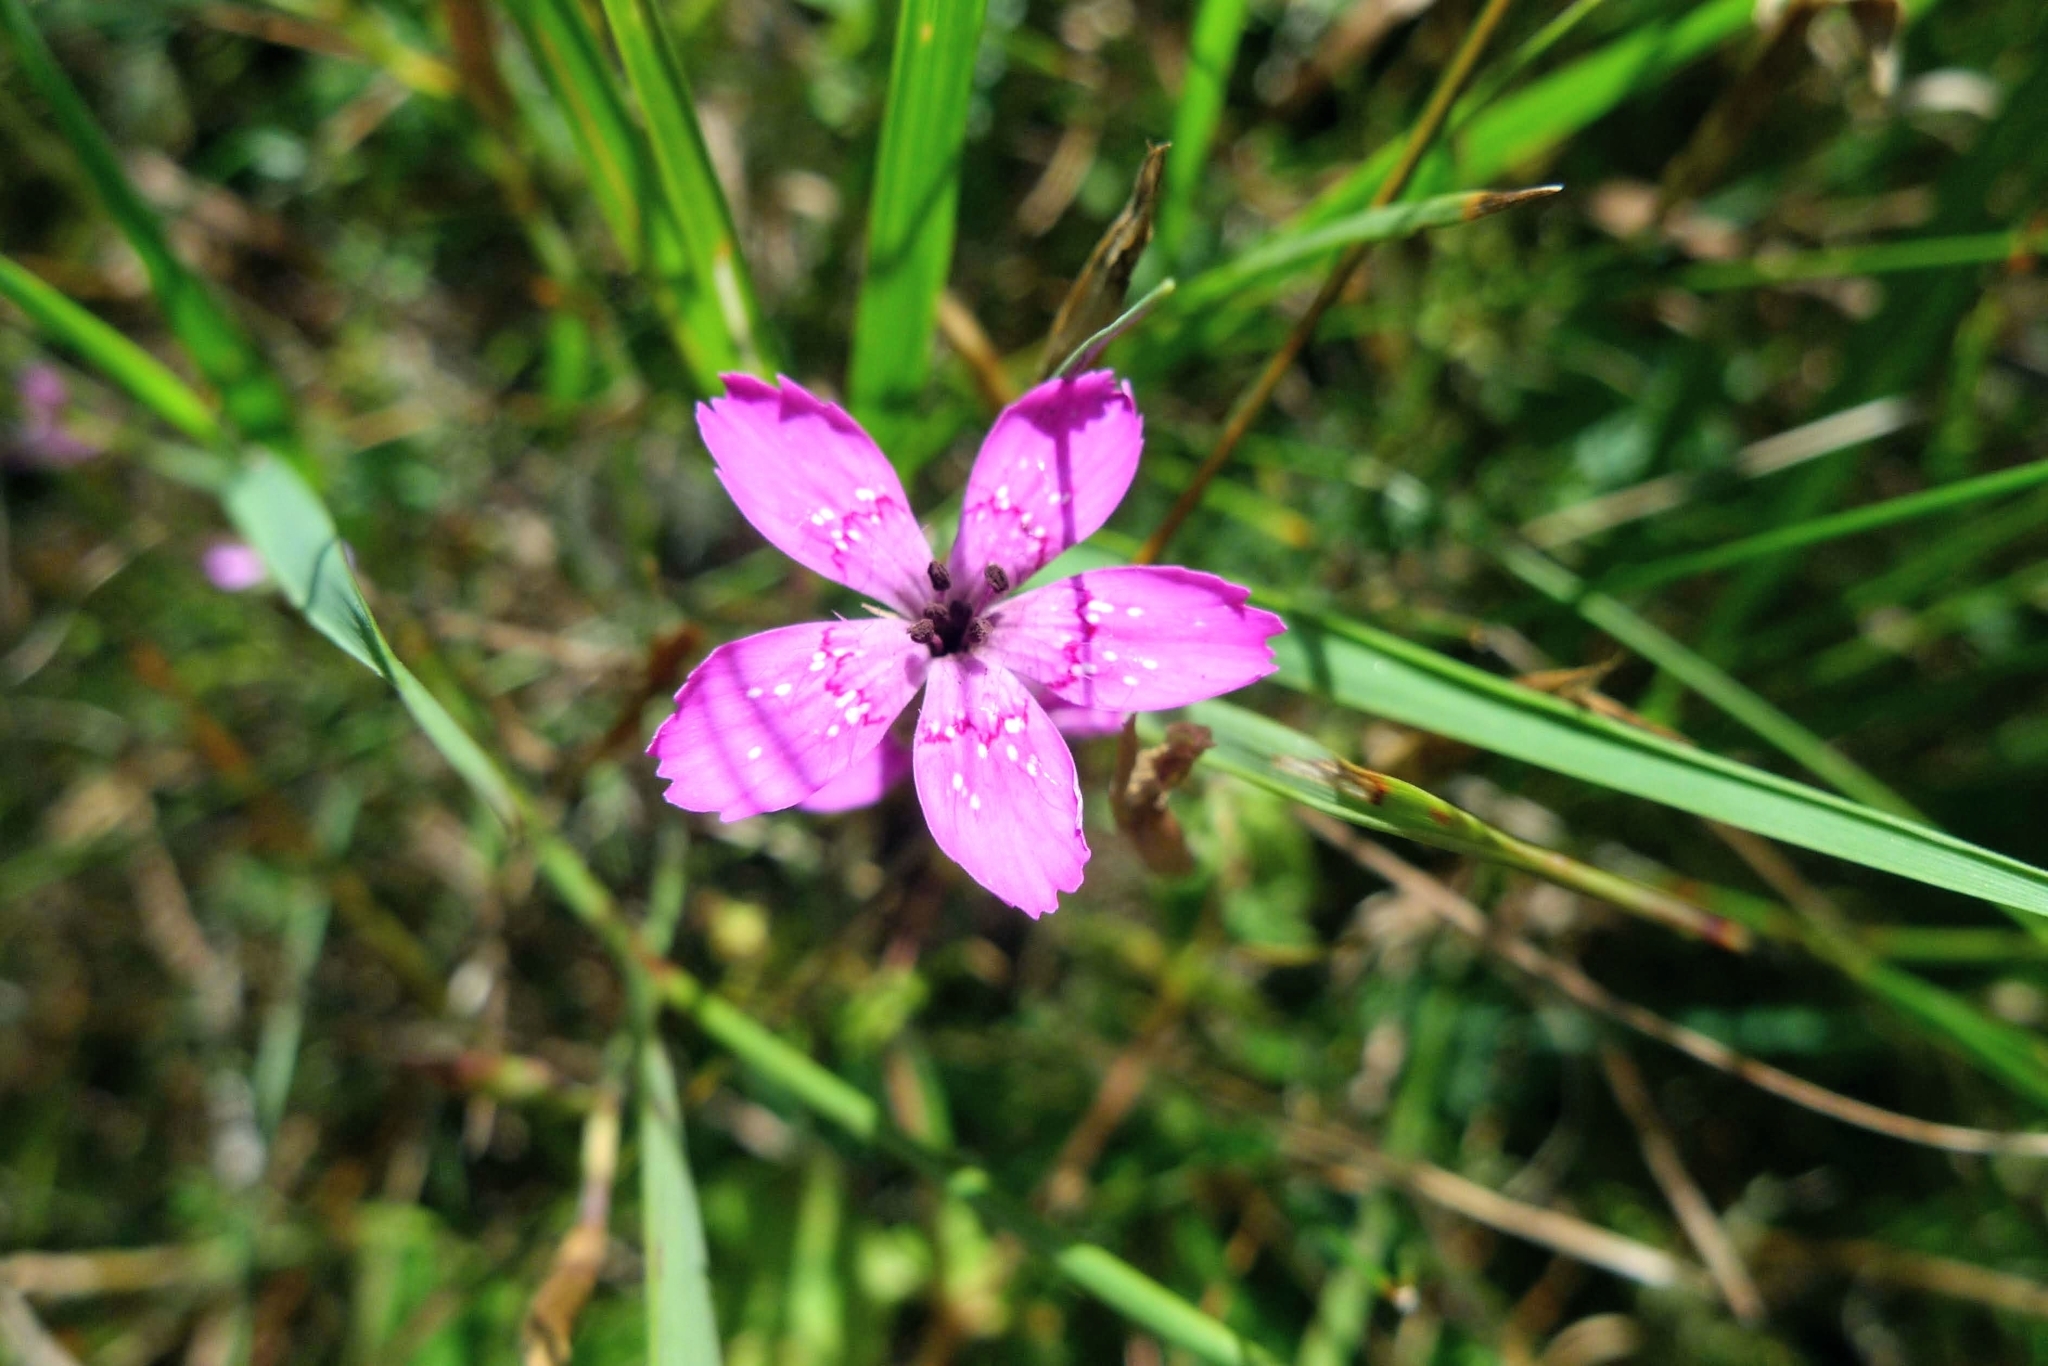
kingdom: Plantae
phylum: Tracheophyta
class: Magnoliopsida
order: Caryophyllales
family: Caryophyllaceae
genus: Dianthus
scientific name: Dianthus deltoides
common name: Maiden pink
